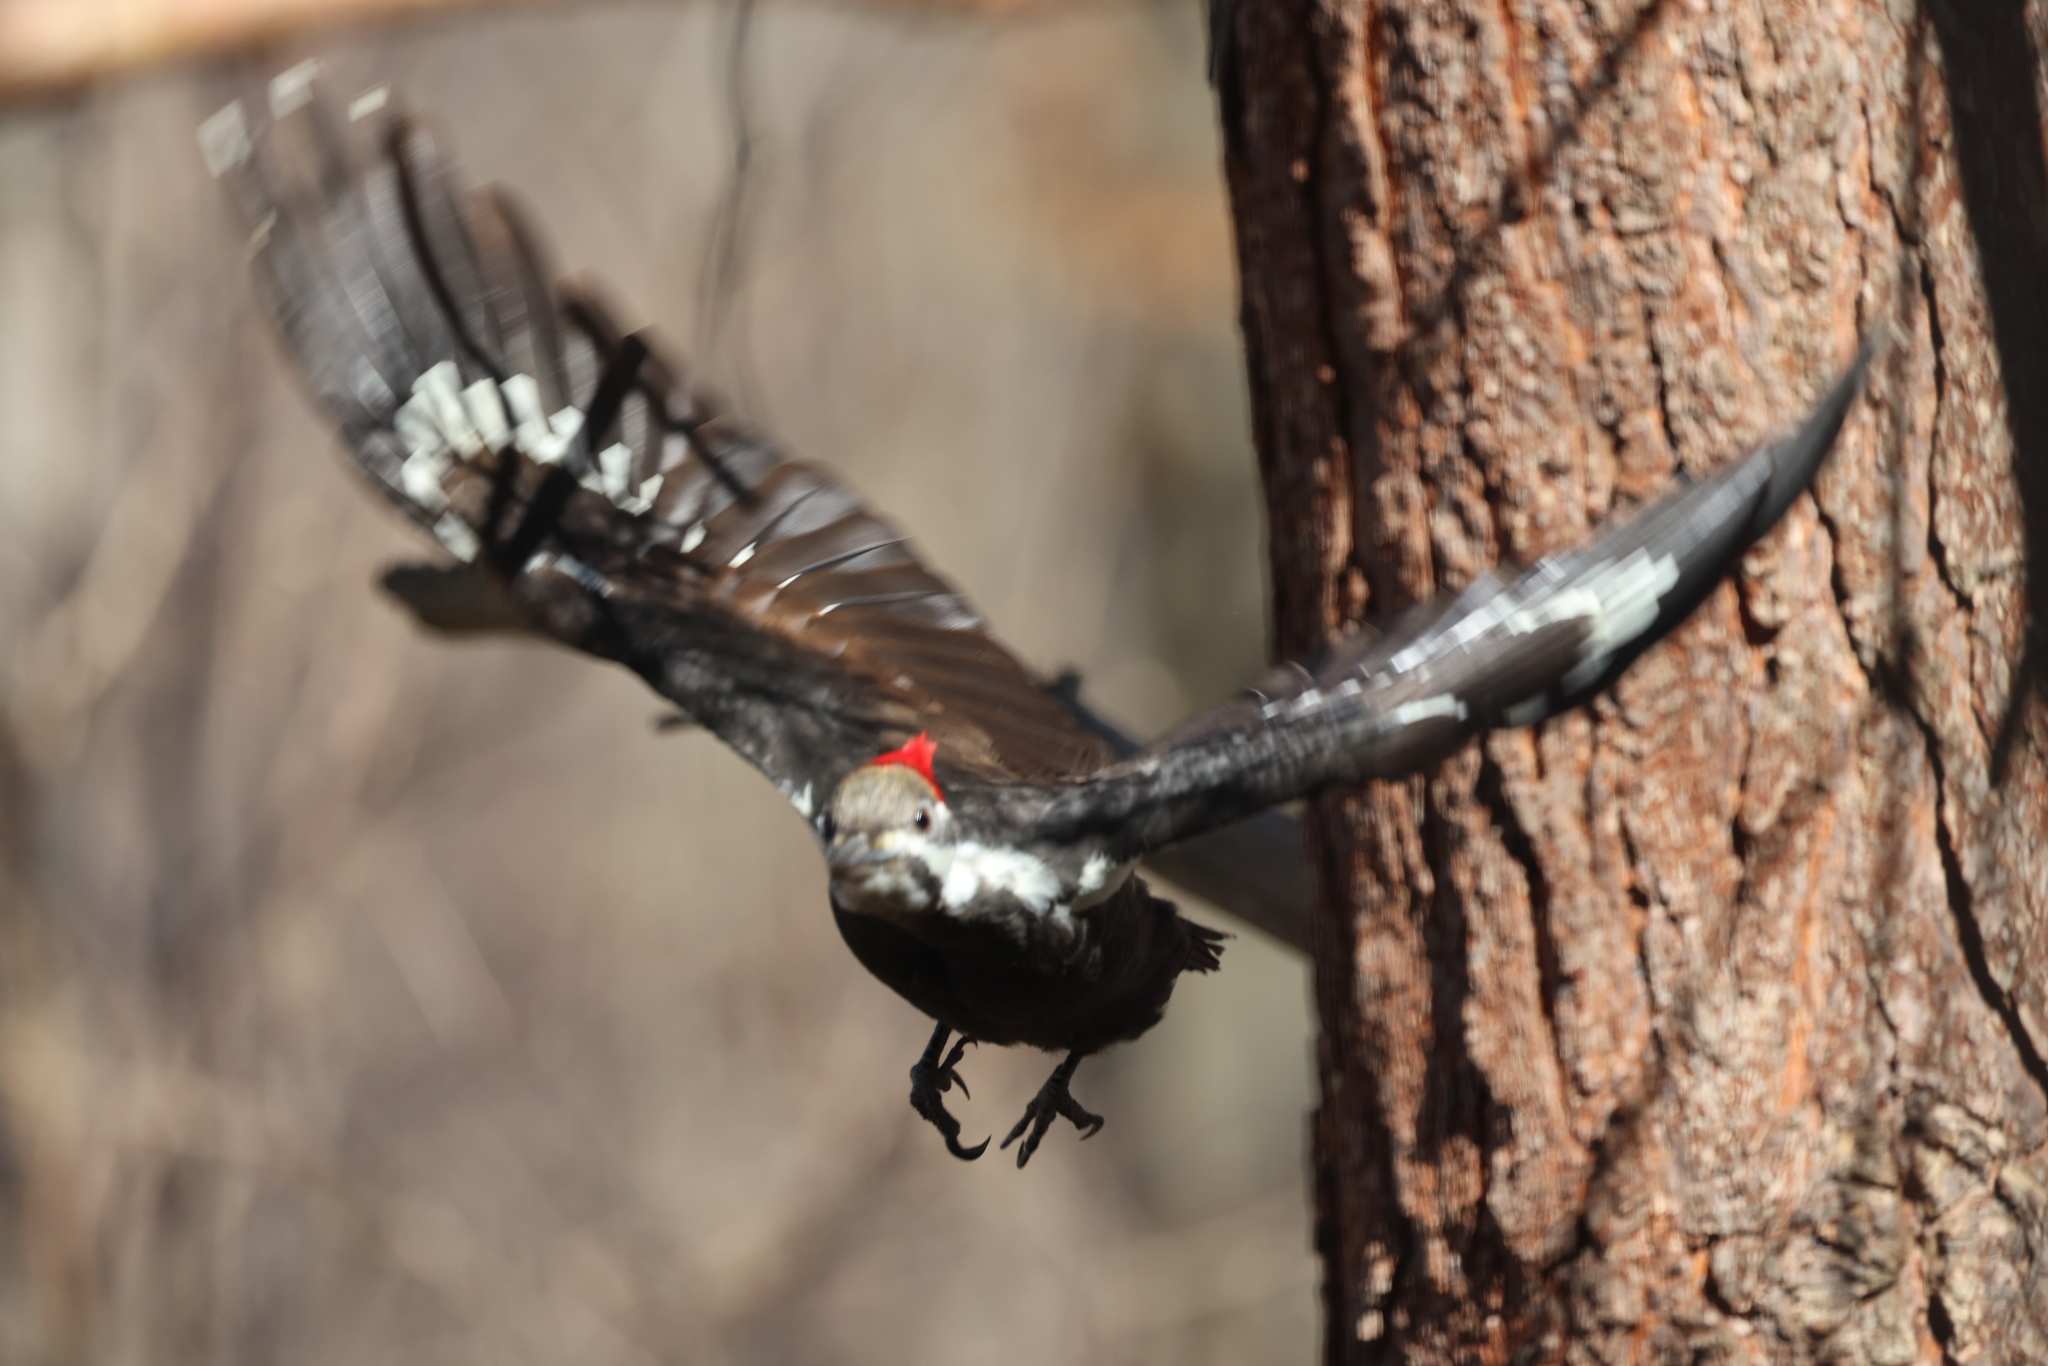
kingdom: Animalia
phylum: Chordata
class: Aves
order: Piciformes
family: Picidae
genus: Dryocopus
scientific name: Dryocopus pileatus
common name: Pileated woodpecker
